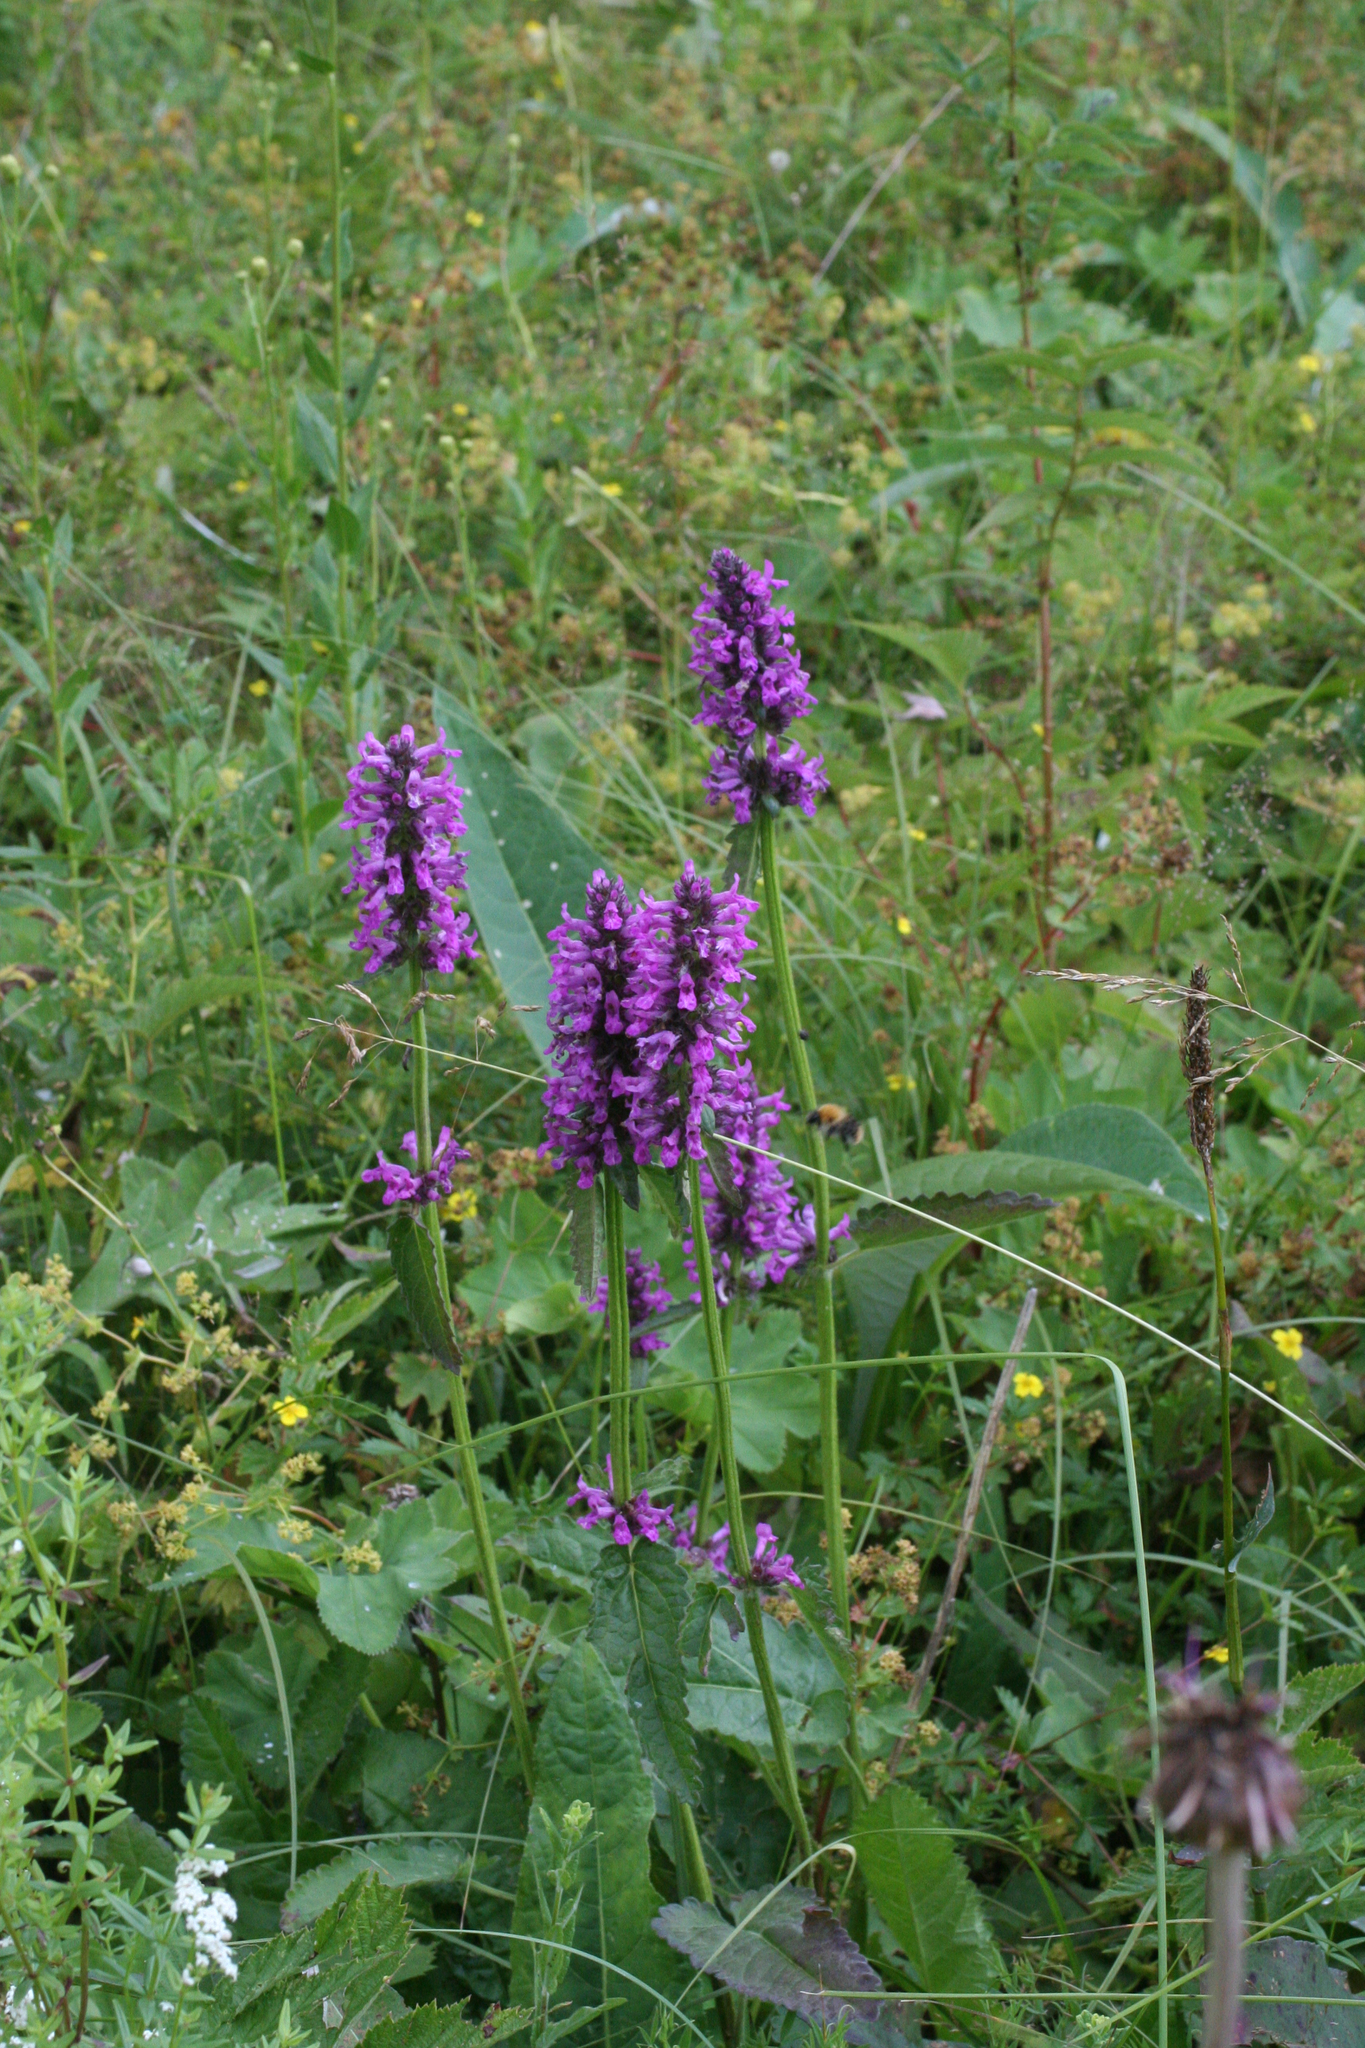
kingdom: Plantae
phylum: Tracheophyta
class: Magnoliopsida
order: Lamiales
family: Lamiaceae
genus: Betonica
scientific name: Betonica officinalis
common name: Bishop's-wort
